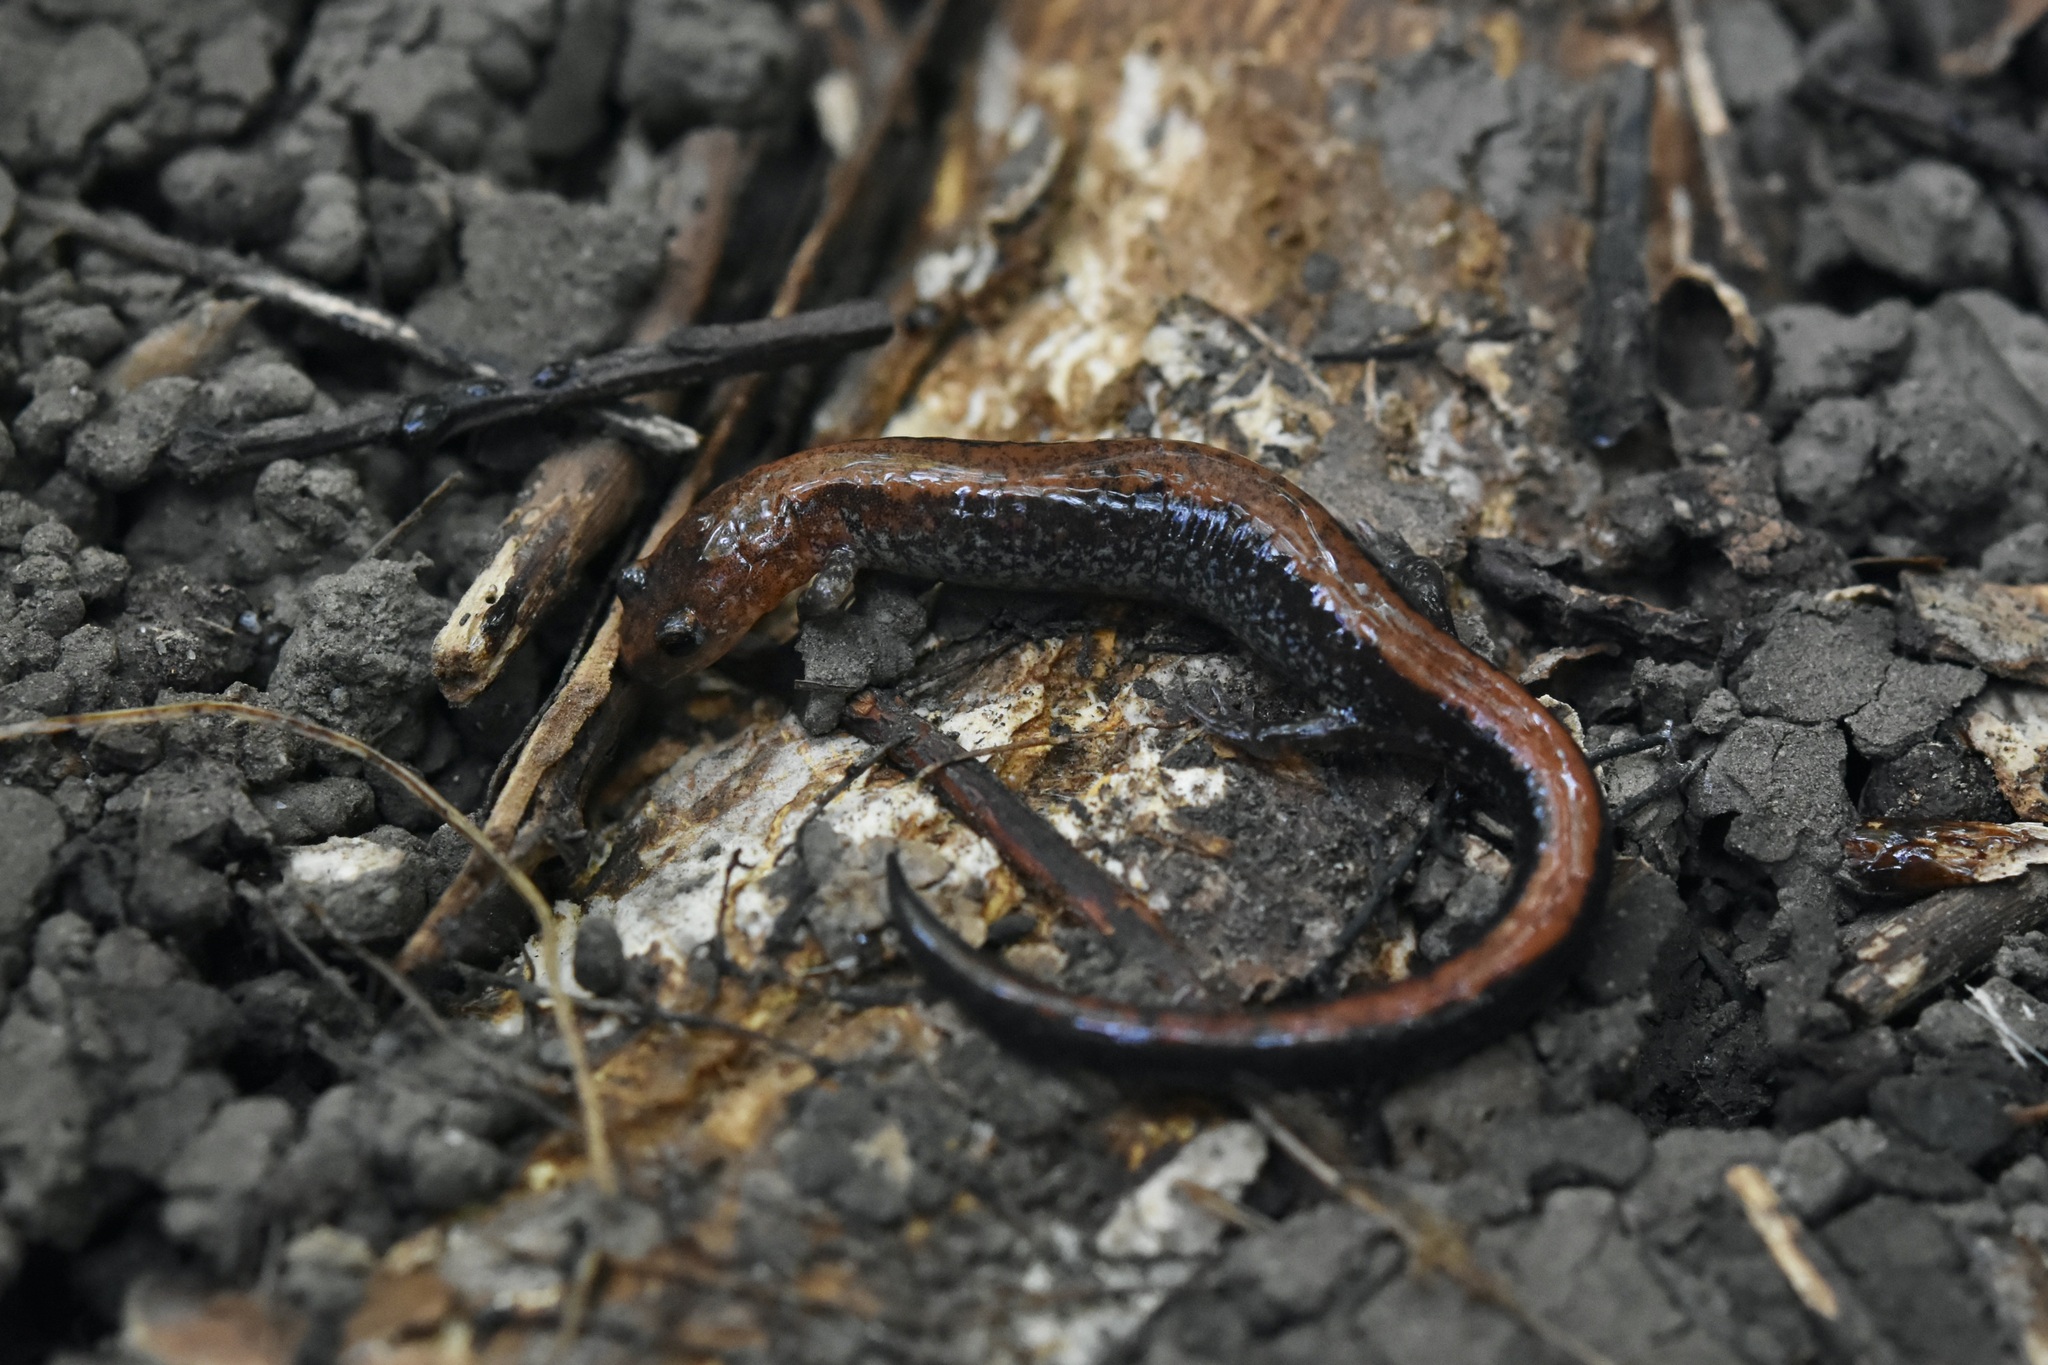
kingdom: Animalia
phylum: Chordata
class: Amphibia
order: Caudata
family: Plethodontidae
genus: Plethodon
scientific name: Plethodon cinereus
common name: Redback salamander
